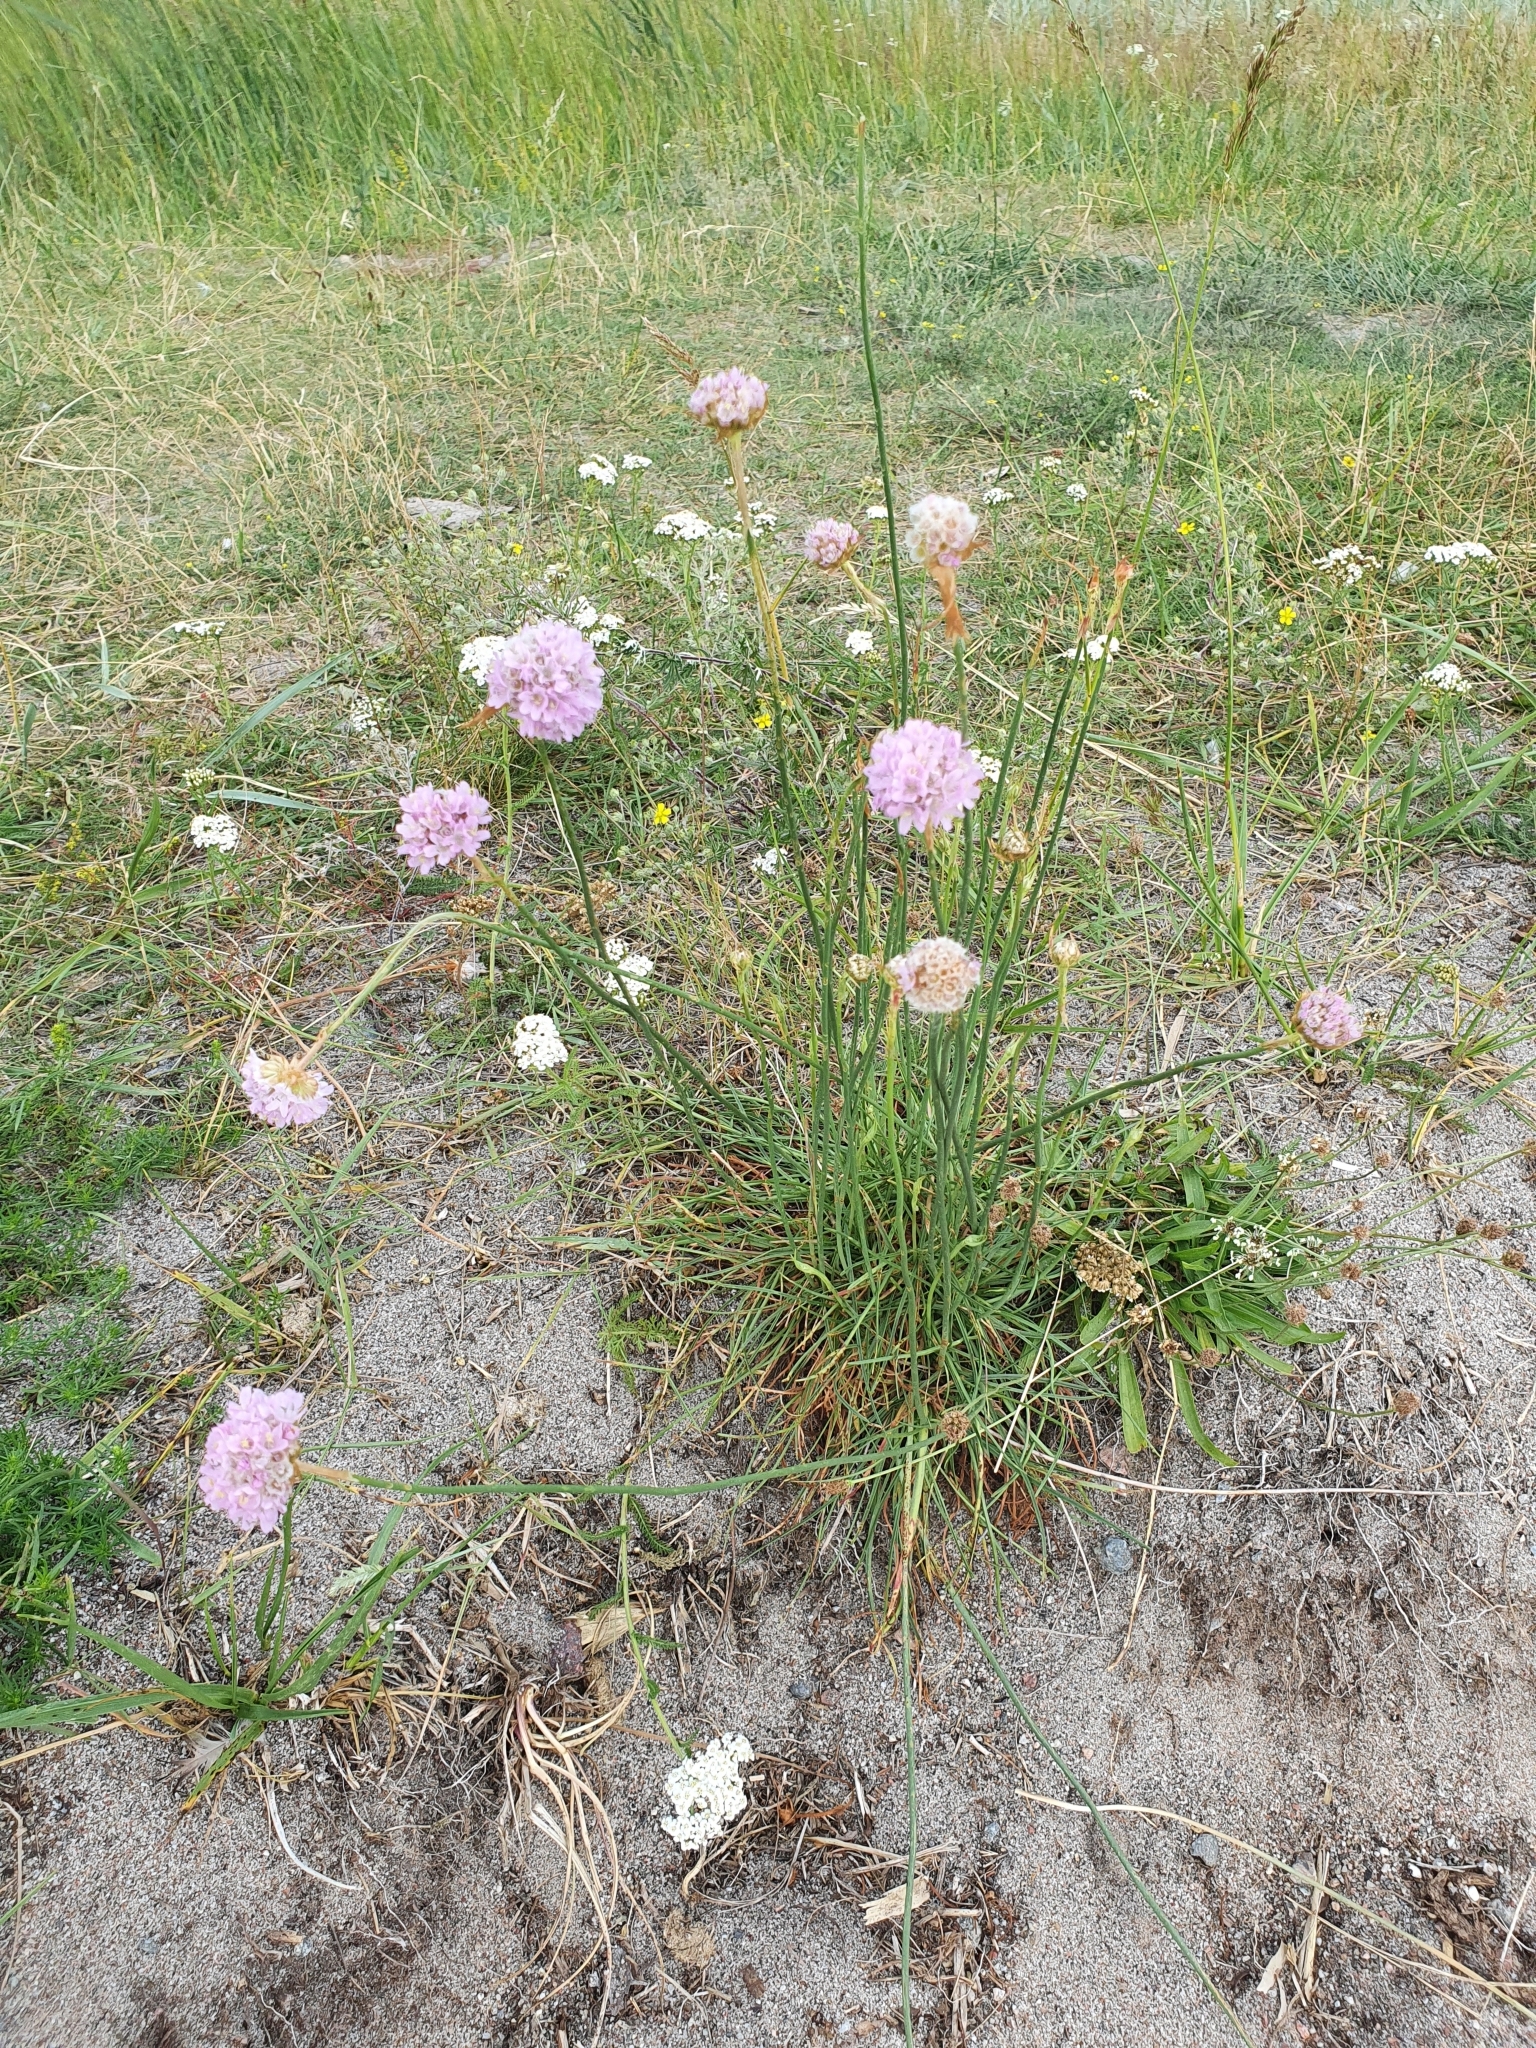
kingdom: Plantae
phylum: Tracheophyta
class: Magnoliopsida
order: Caryophyllales
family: Plumbaginaceae
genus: Armeria
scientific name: Armeria maritima
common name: Thrift
